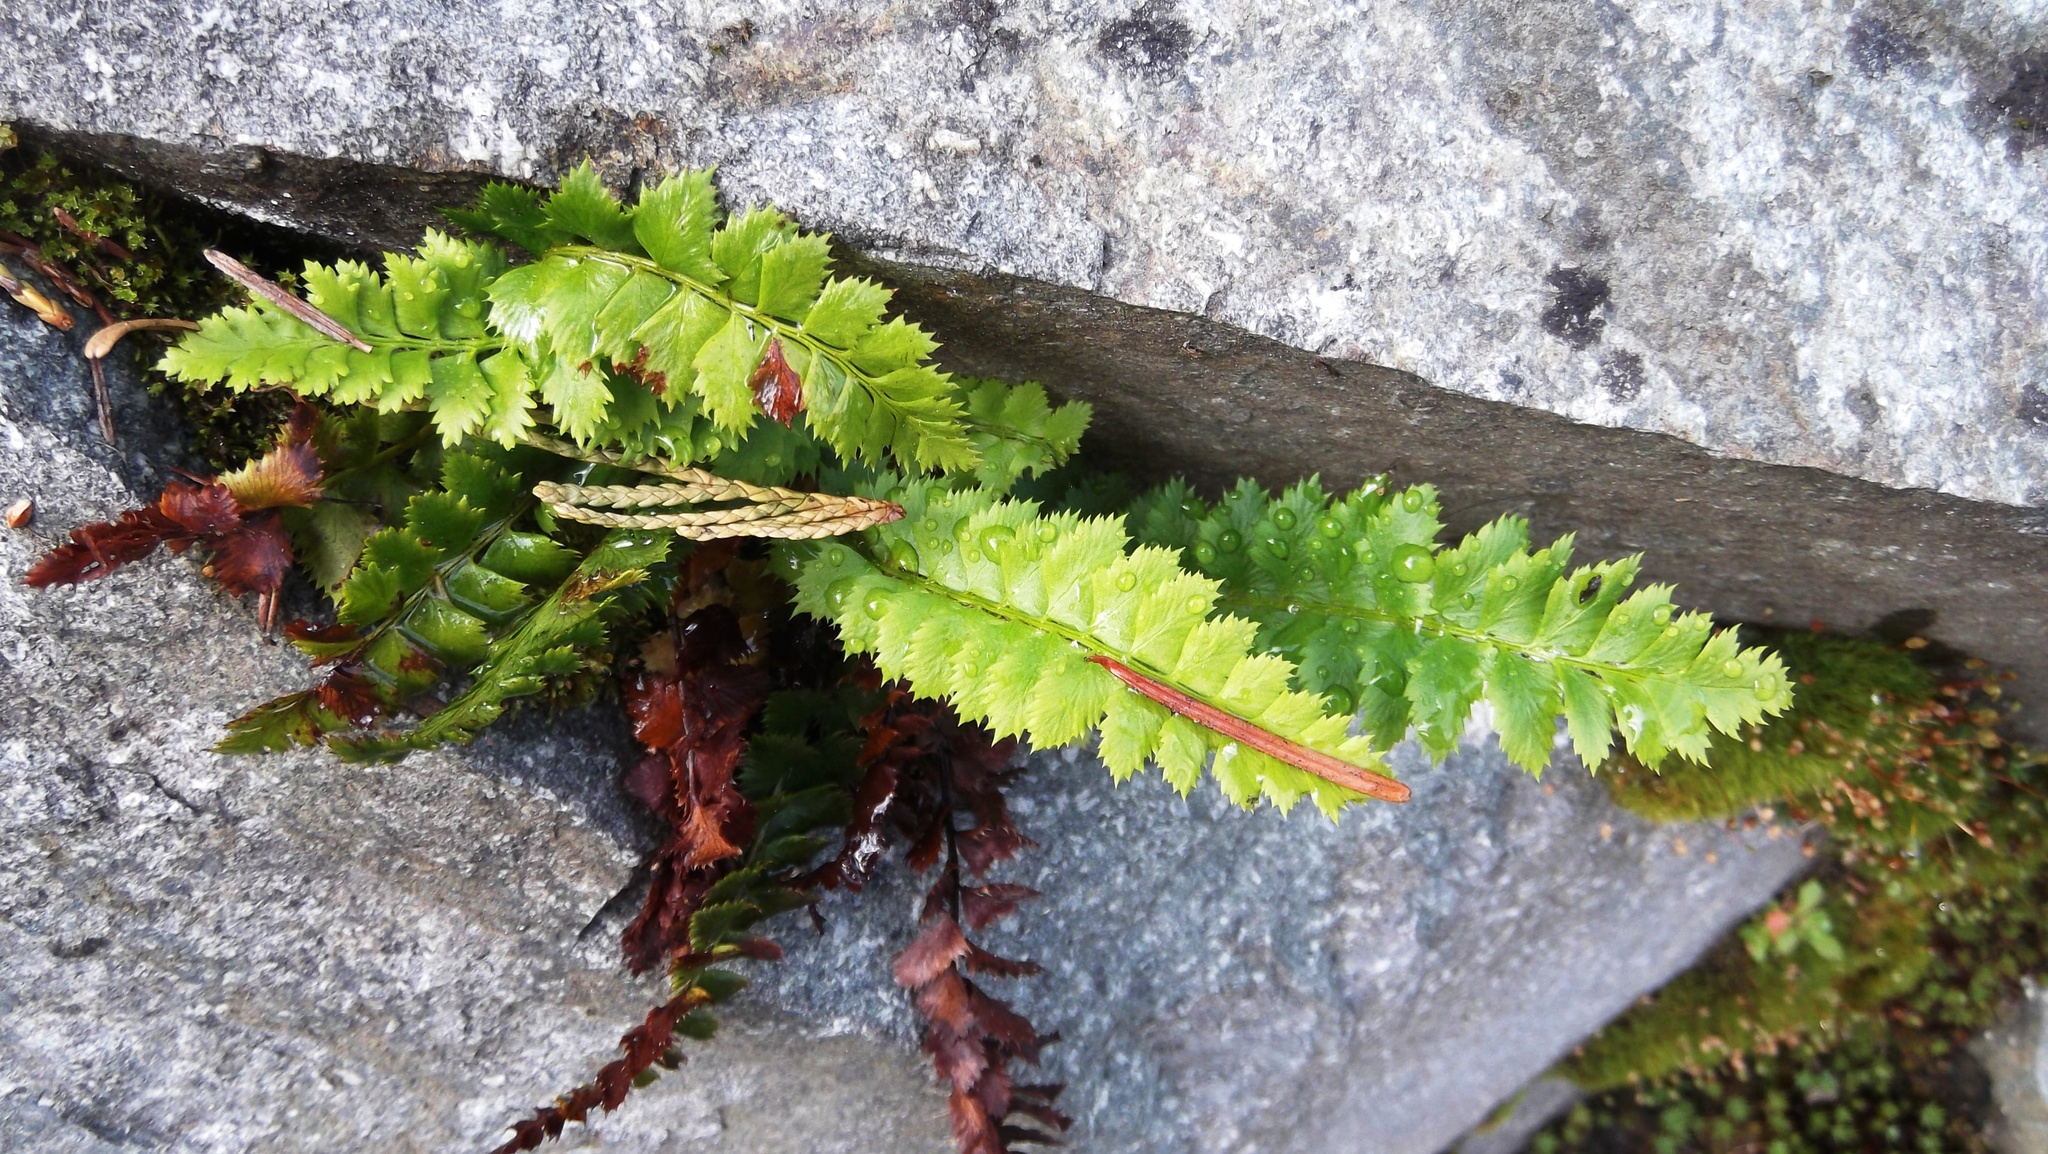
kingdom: Plantae
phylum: Tracheophyta
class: Polypodiopsida
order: Polypodiales
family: Dryopteridaceae
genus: Polystichum
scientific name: Polystichum lonchitis
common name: Holly fern
